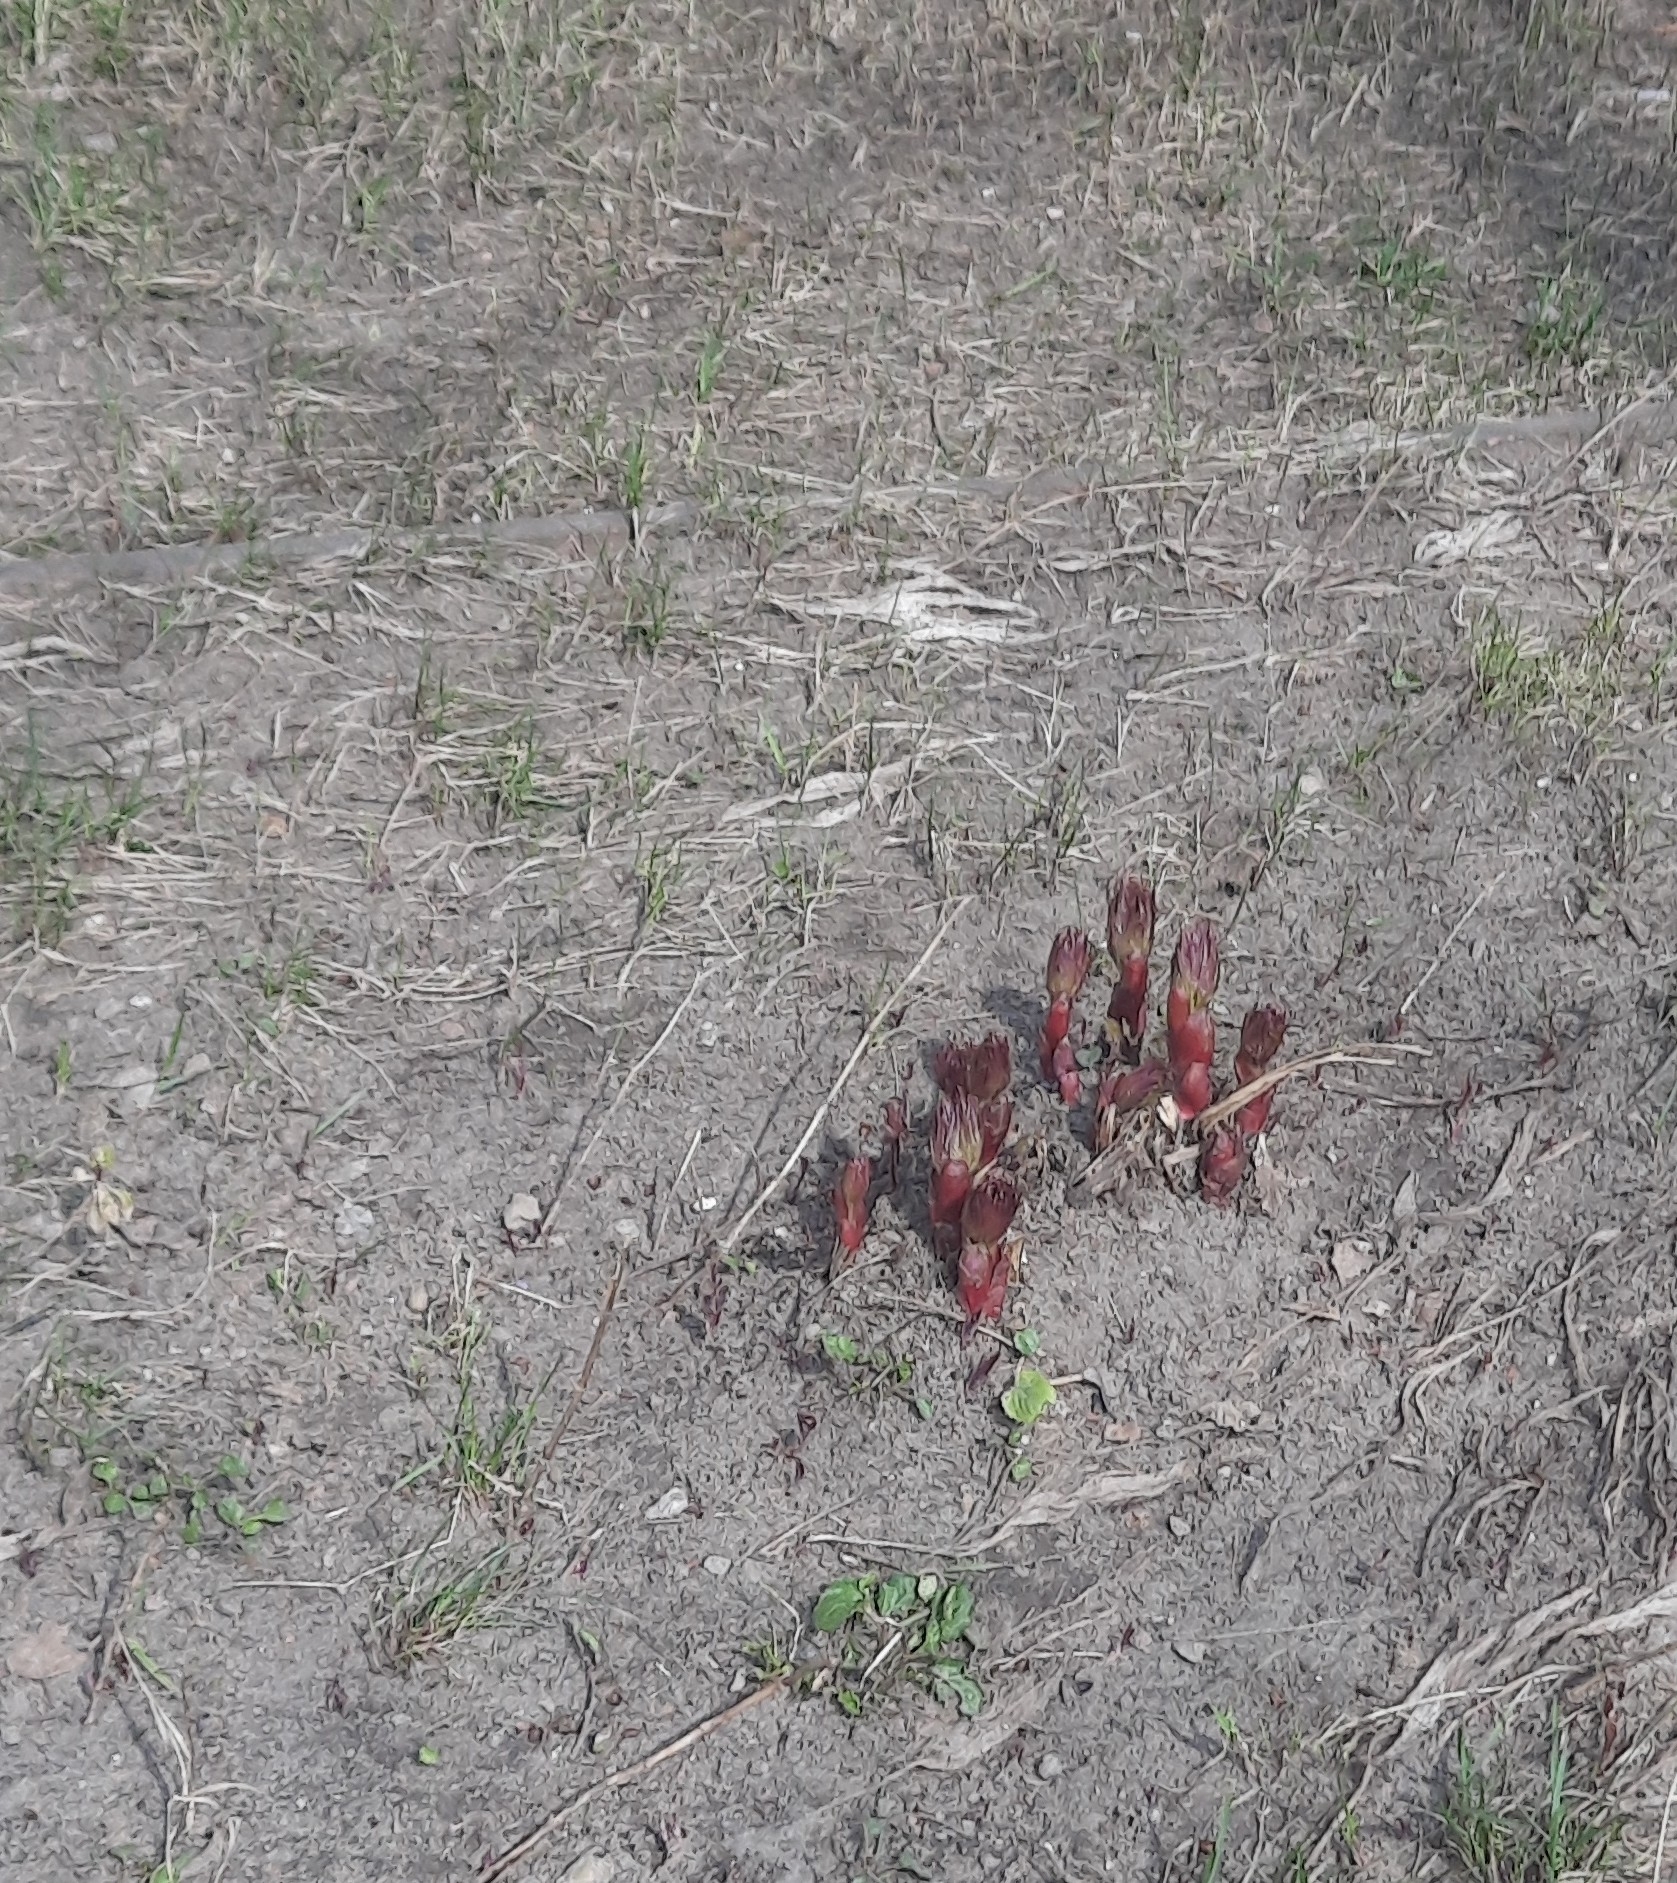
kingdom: Plantae
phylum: Tracheophyta
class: Magnoliopsida
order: Saxifragales
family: Paeoniaceae
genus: Paeonia
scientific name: Paeonia anomala
